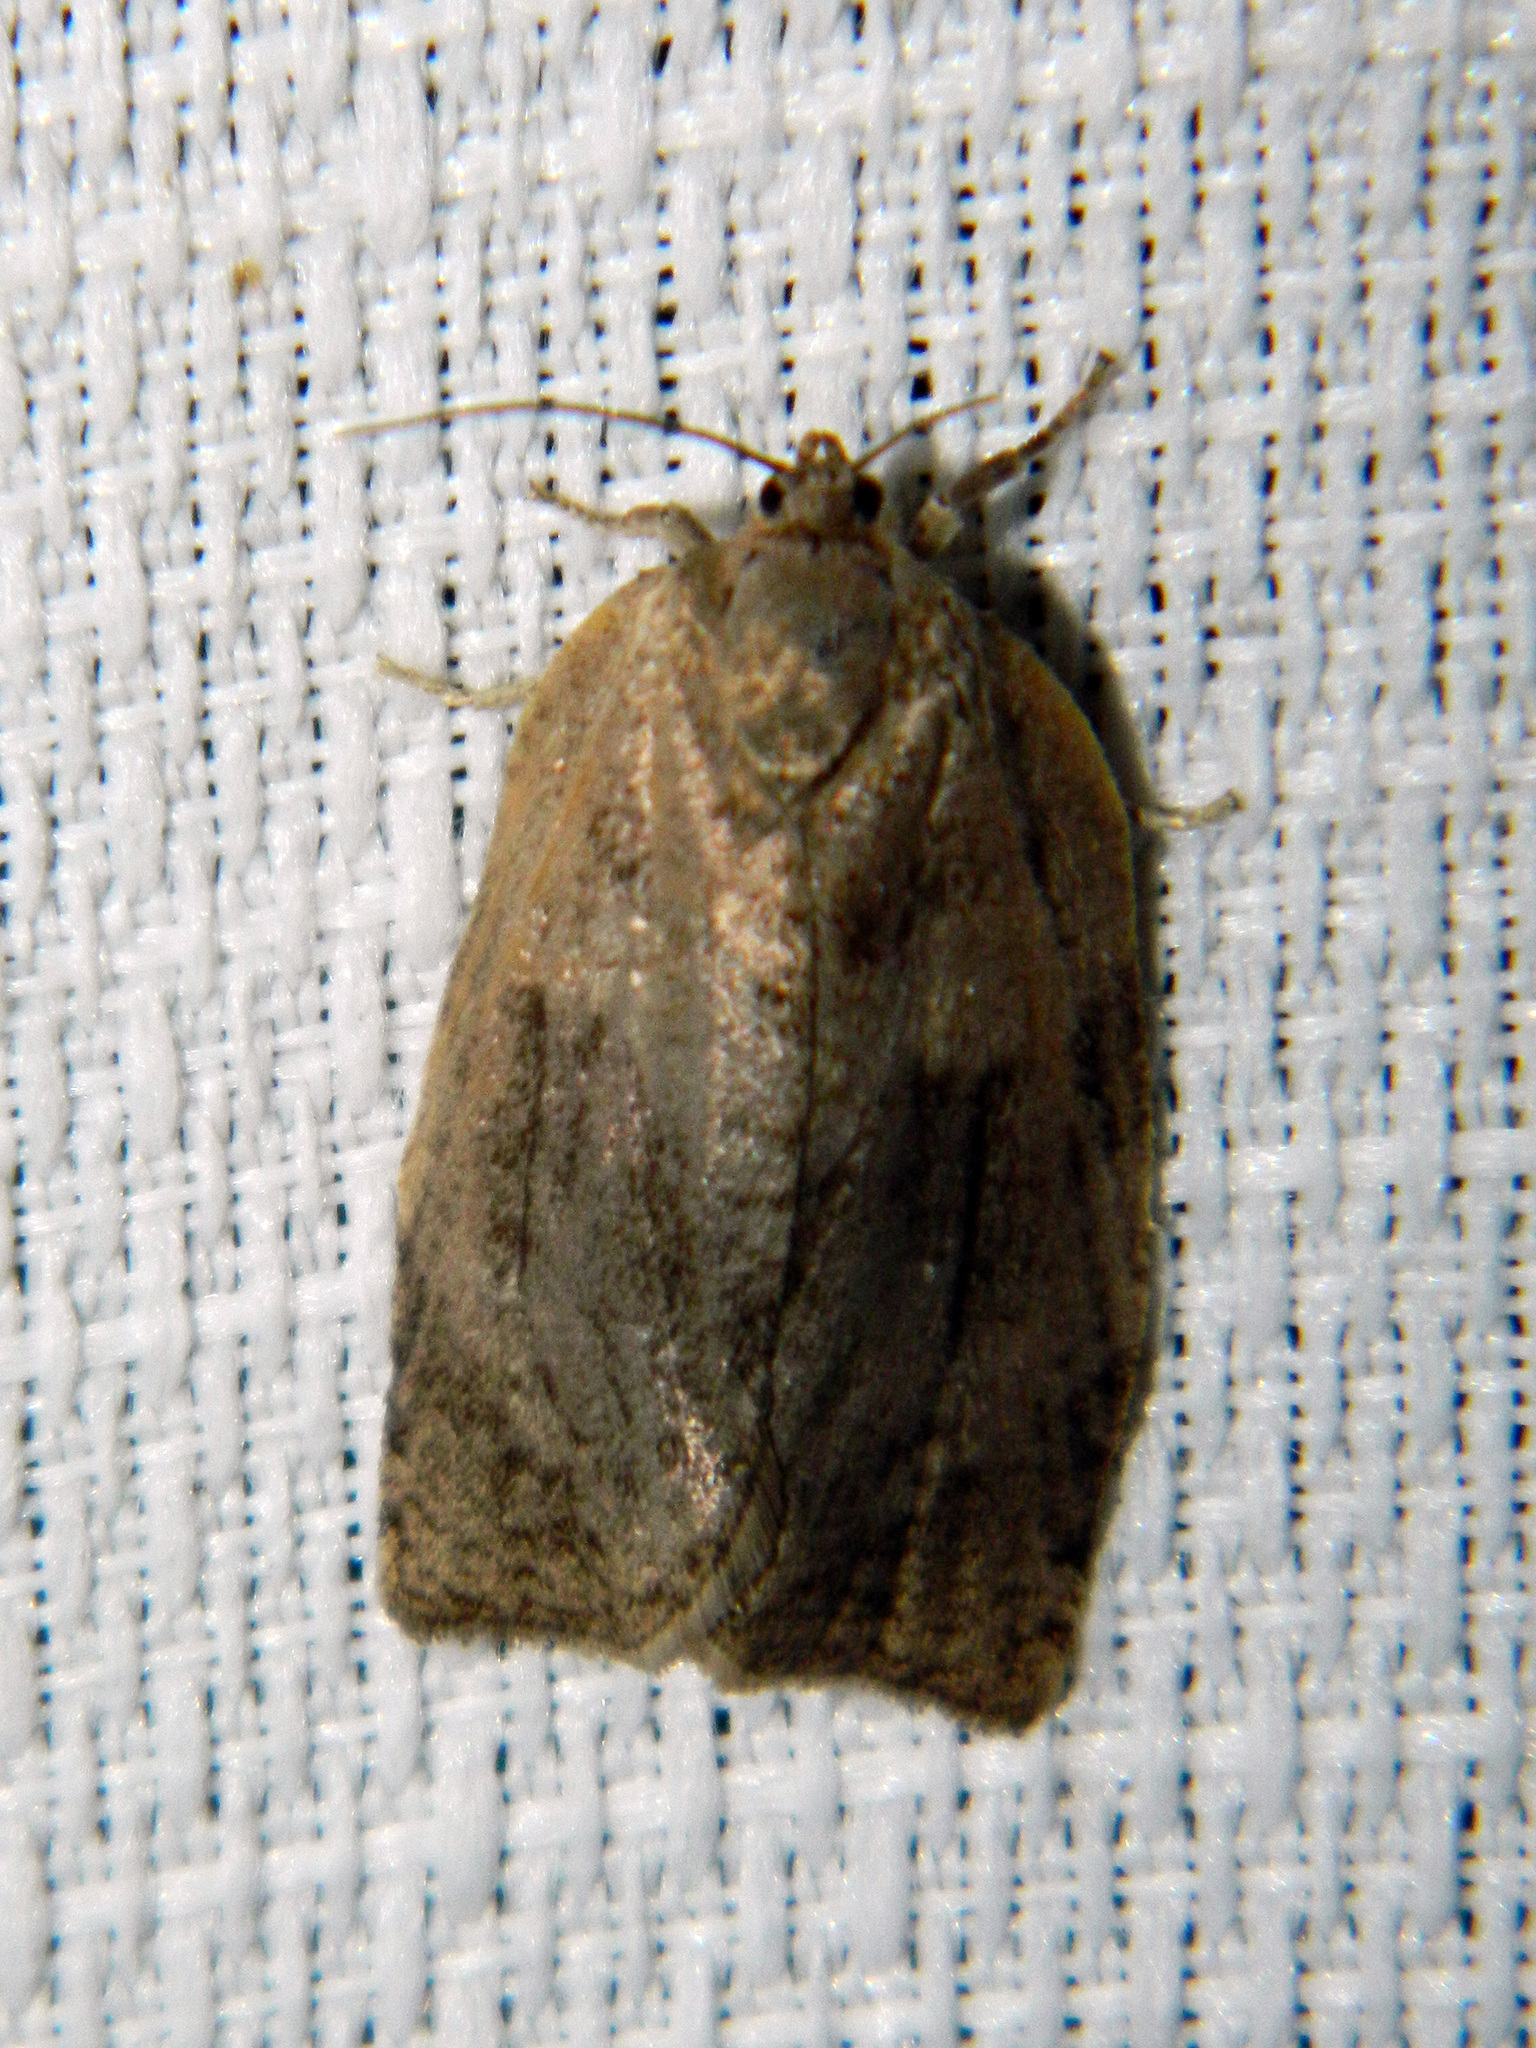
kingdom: Animalia
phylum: Arthropoda
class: Insecta
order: Lepidoptera
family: Tortricidae
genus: Choristoneura
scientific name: Choristoneura conflictana
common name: Large aspen tortrix
